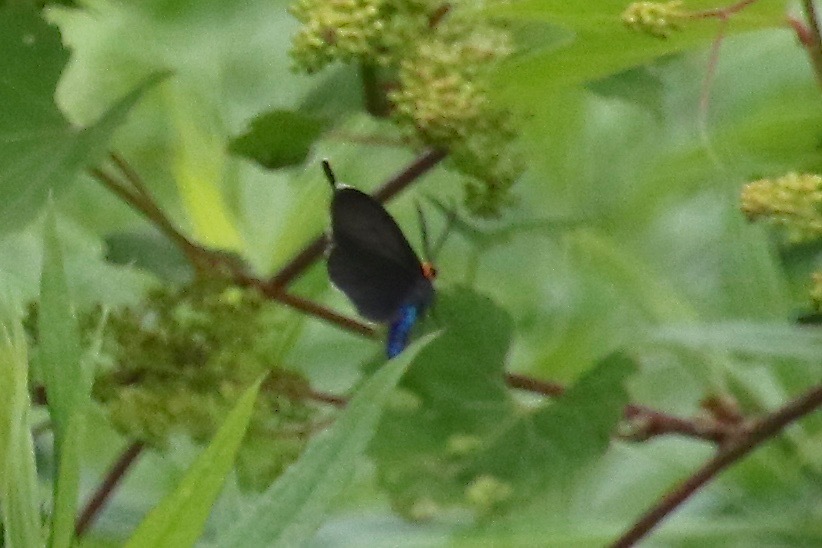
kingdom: Animalia
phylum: Arthropoda
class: Insecta
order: Lepidoptera
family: Erebidae
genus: Ctenucha
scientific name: Ctenucha virginica
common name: Virginia ctenucha moth
